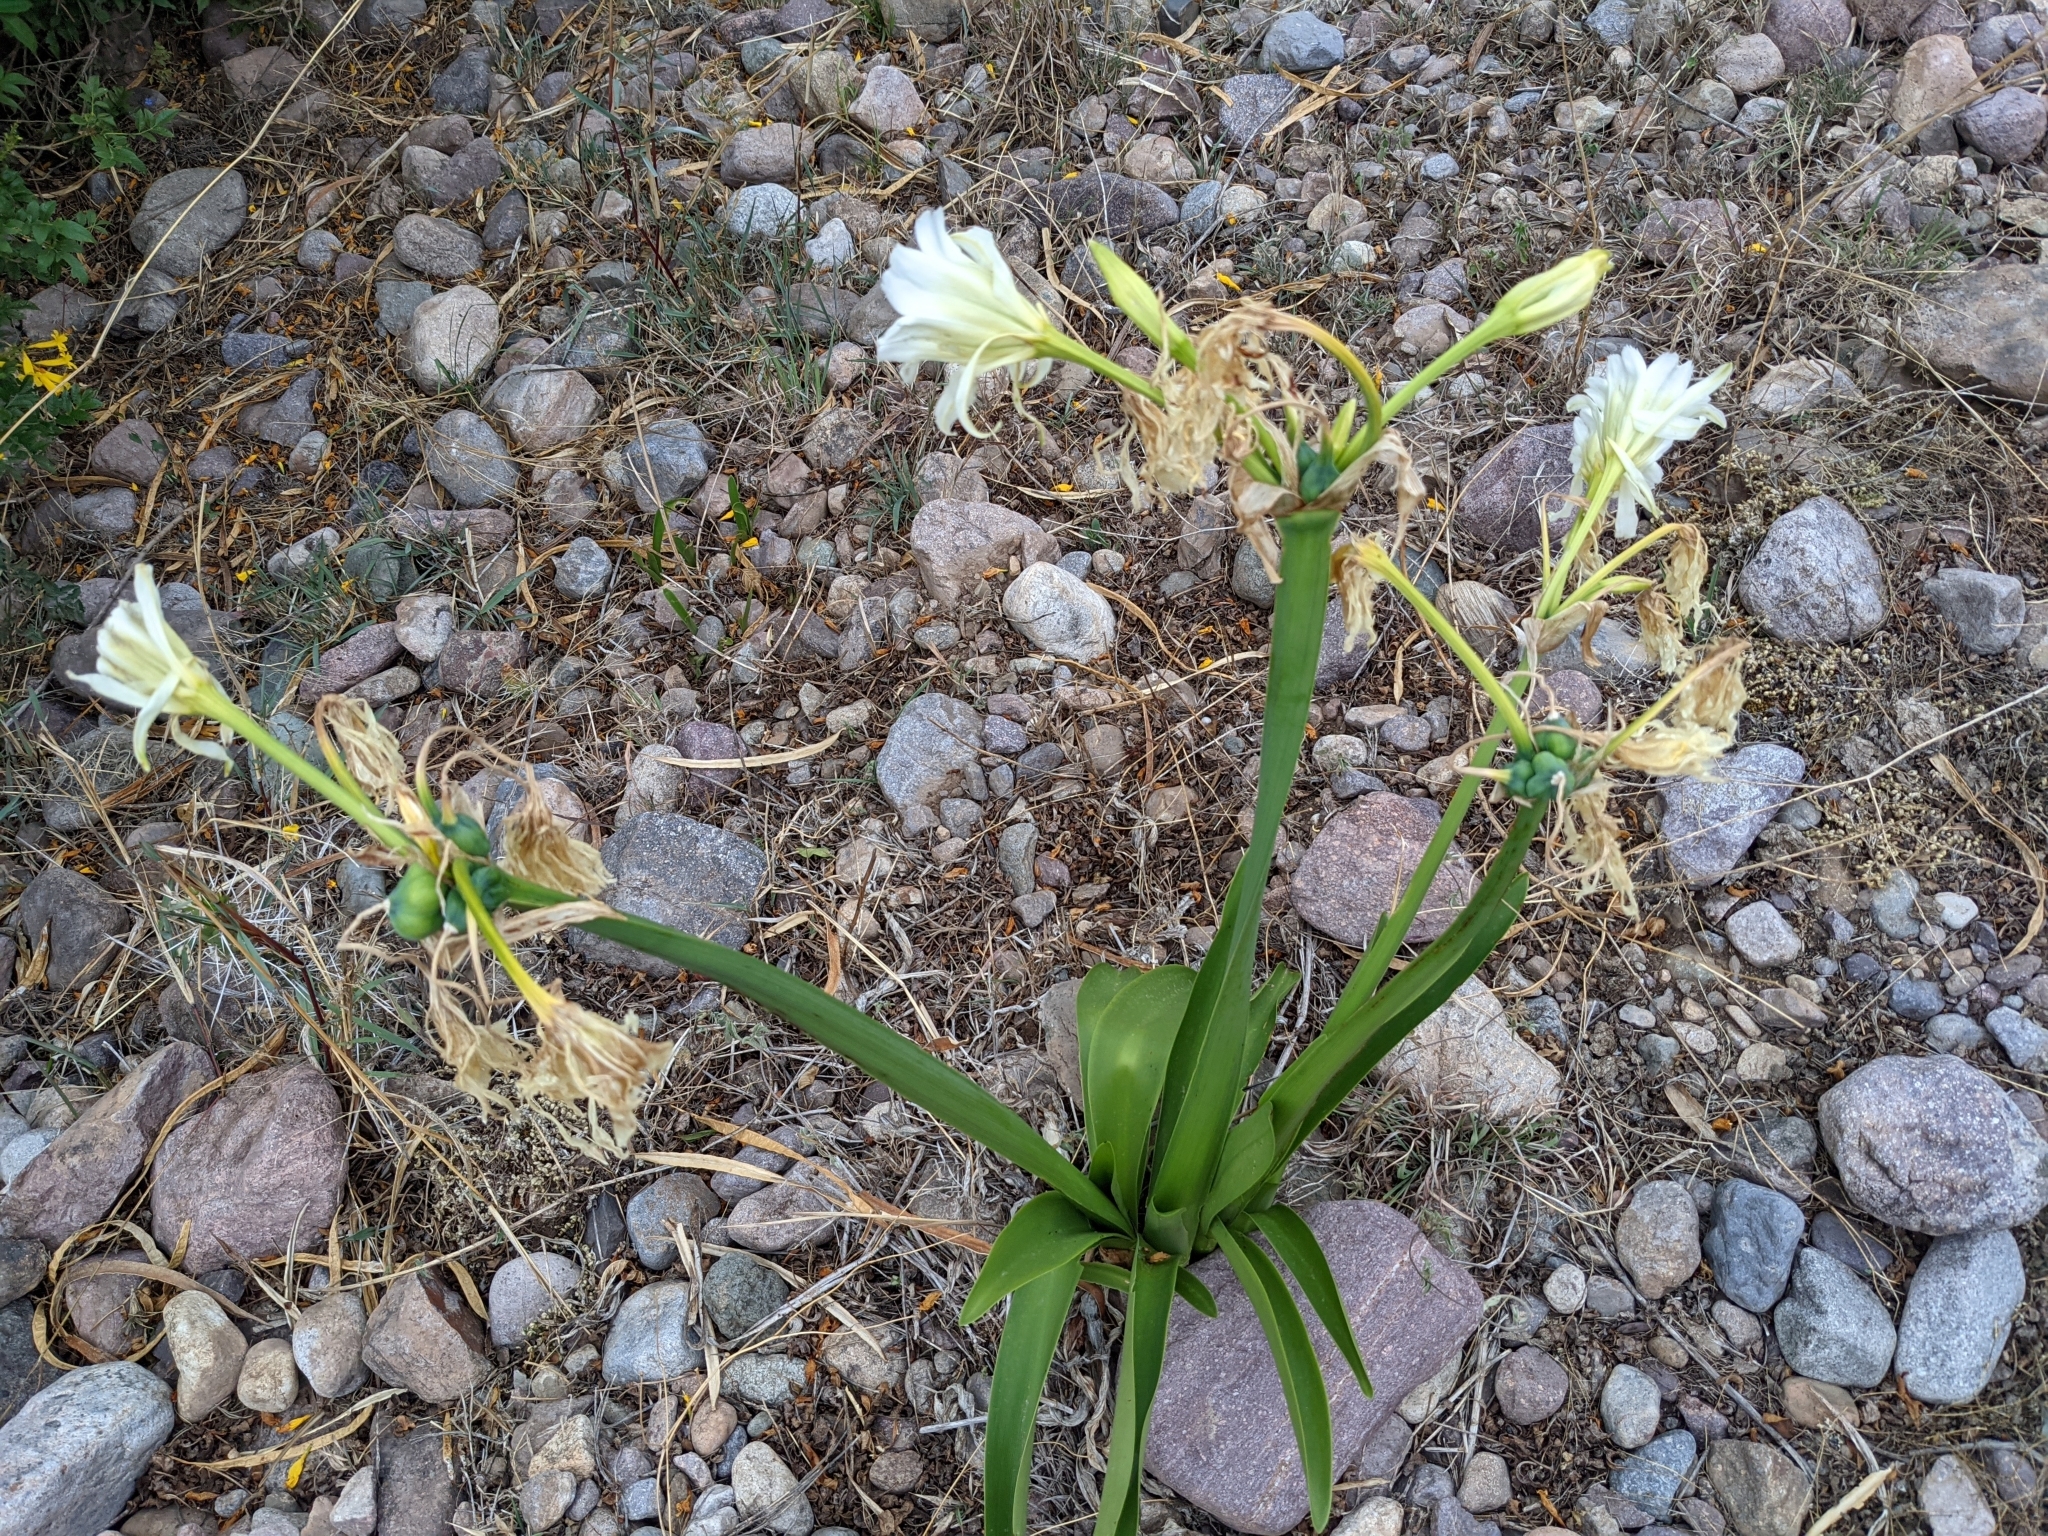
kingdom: Plantae
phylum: Tracheophyta
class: Liliopsida
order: Asparagales
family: Amaryllidaceae
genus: Ismene
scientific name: Ismene hawkesii
